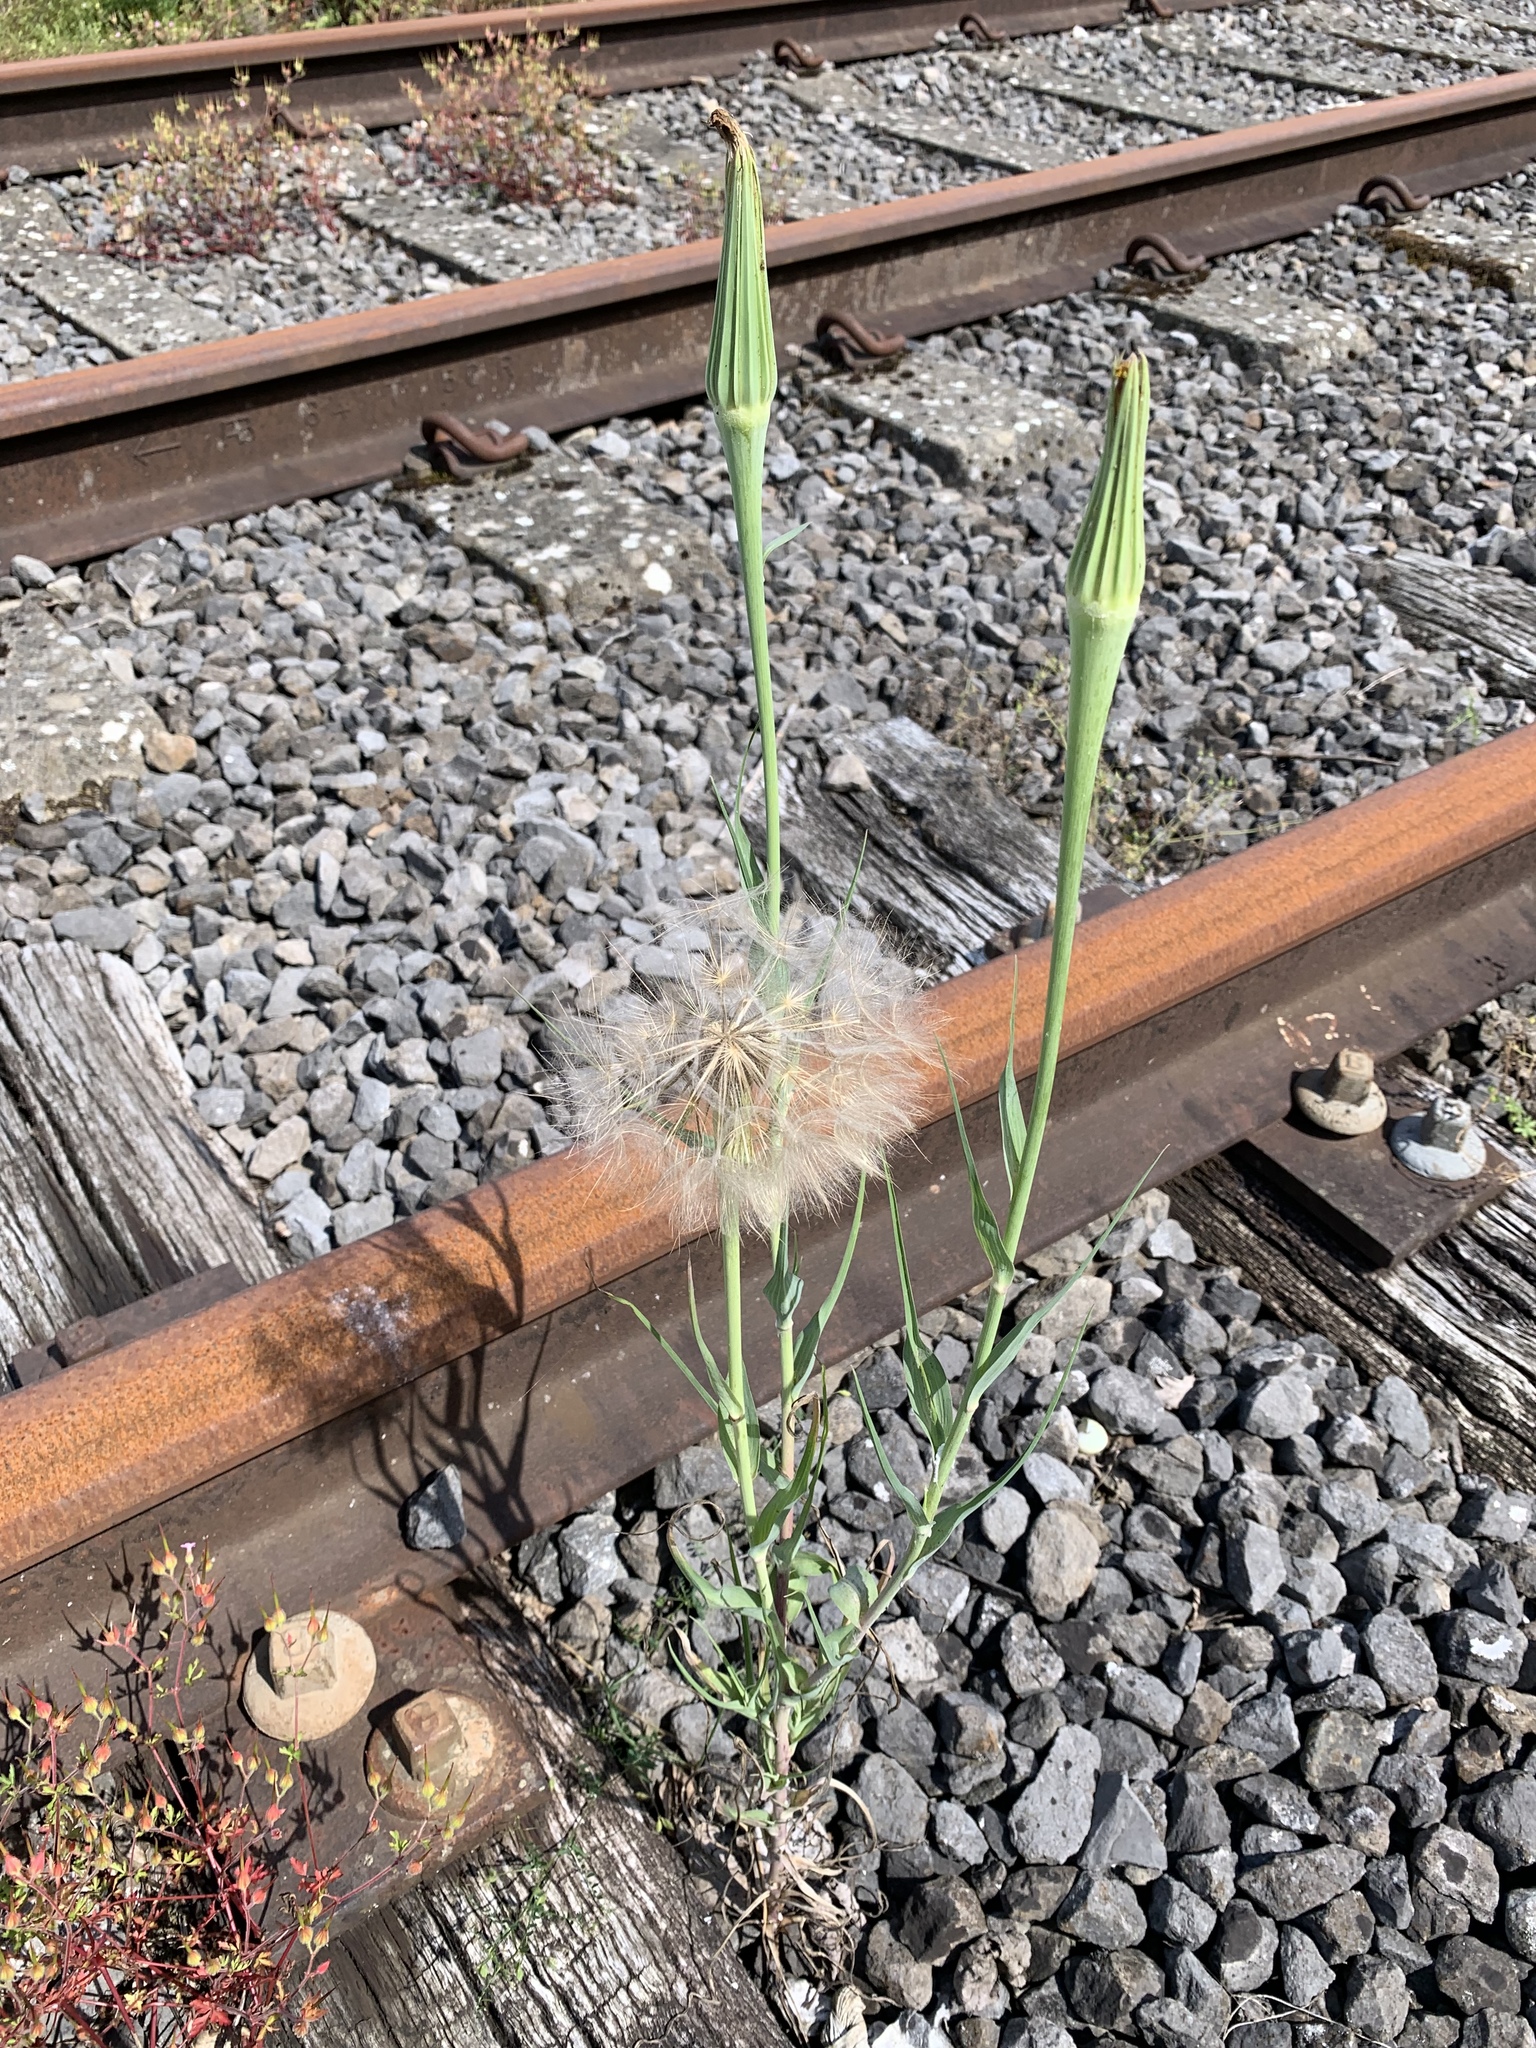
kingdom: Plantae
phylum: Tracheophyta
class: Magnoliopsida
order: Asterales
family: Asteraceae
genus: Tragopogon
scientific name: Tragopogon dubius
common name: Yellow salsify
